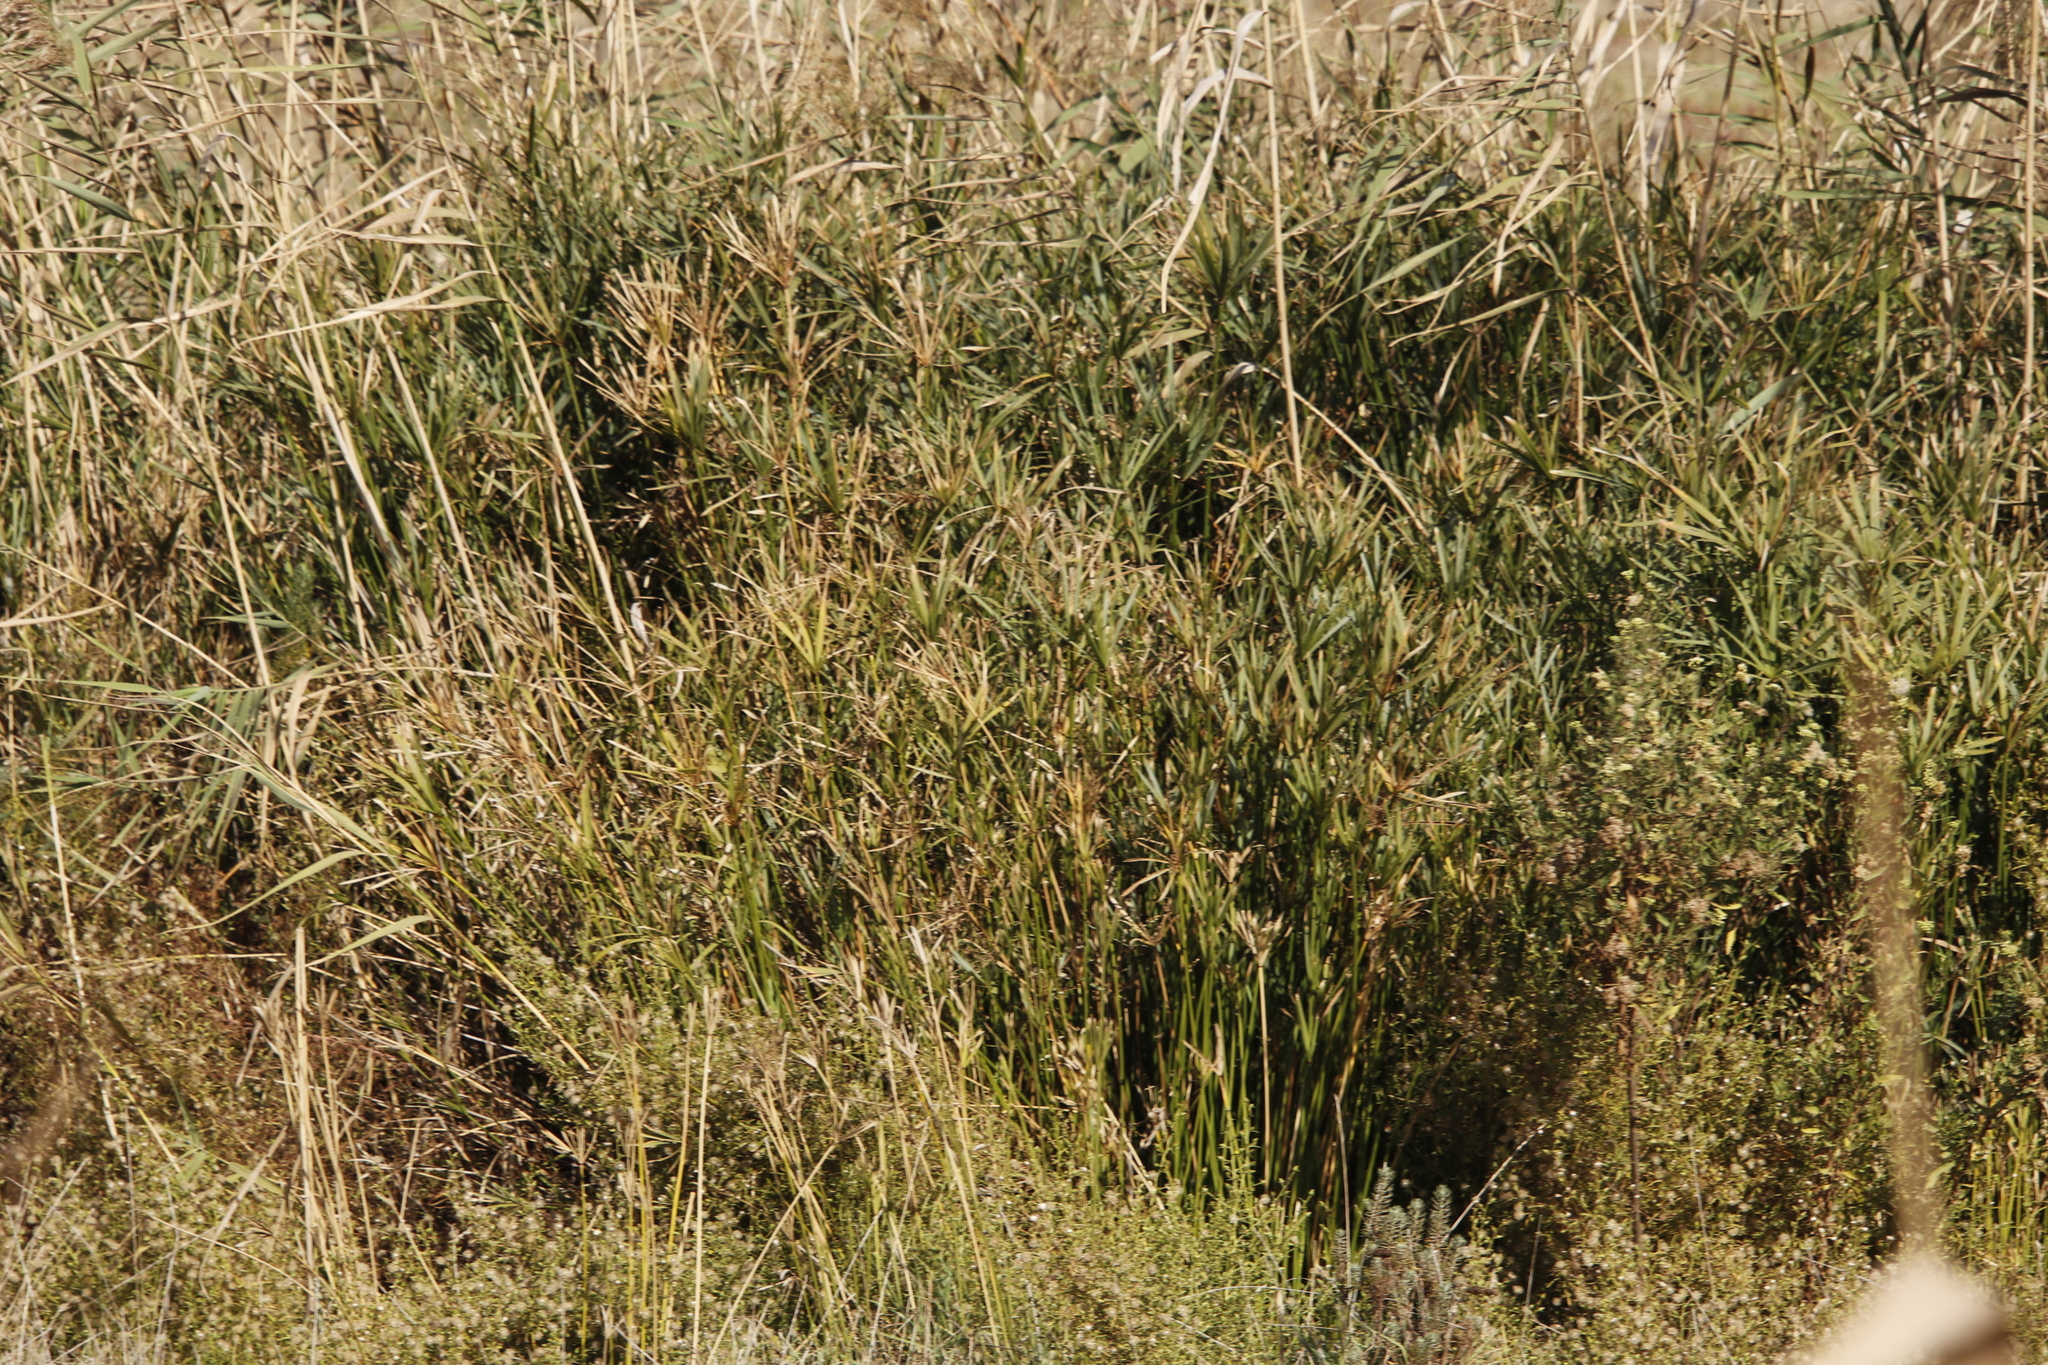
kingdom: Plantae
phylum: Tracheophyta
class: Liliopsida
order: Poales
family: Cyperaceae
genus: Cyperus
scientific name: Cyperus textilis
